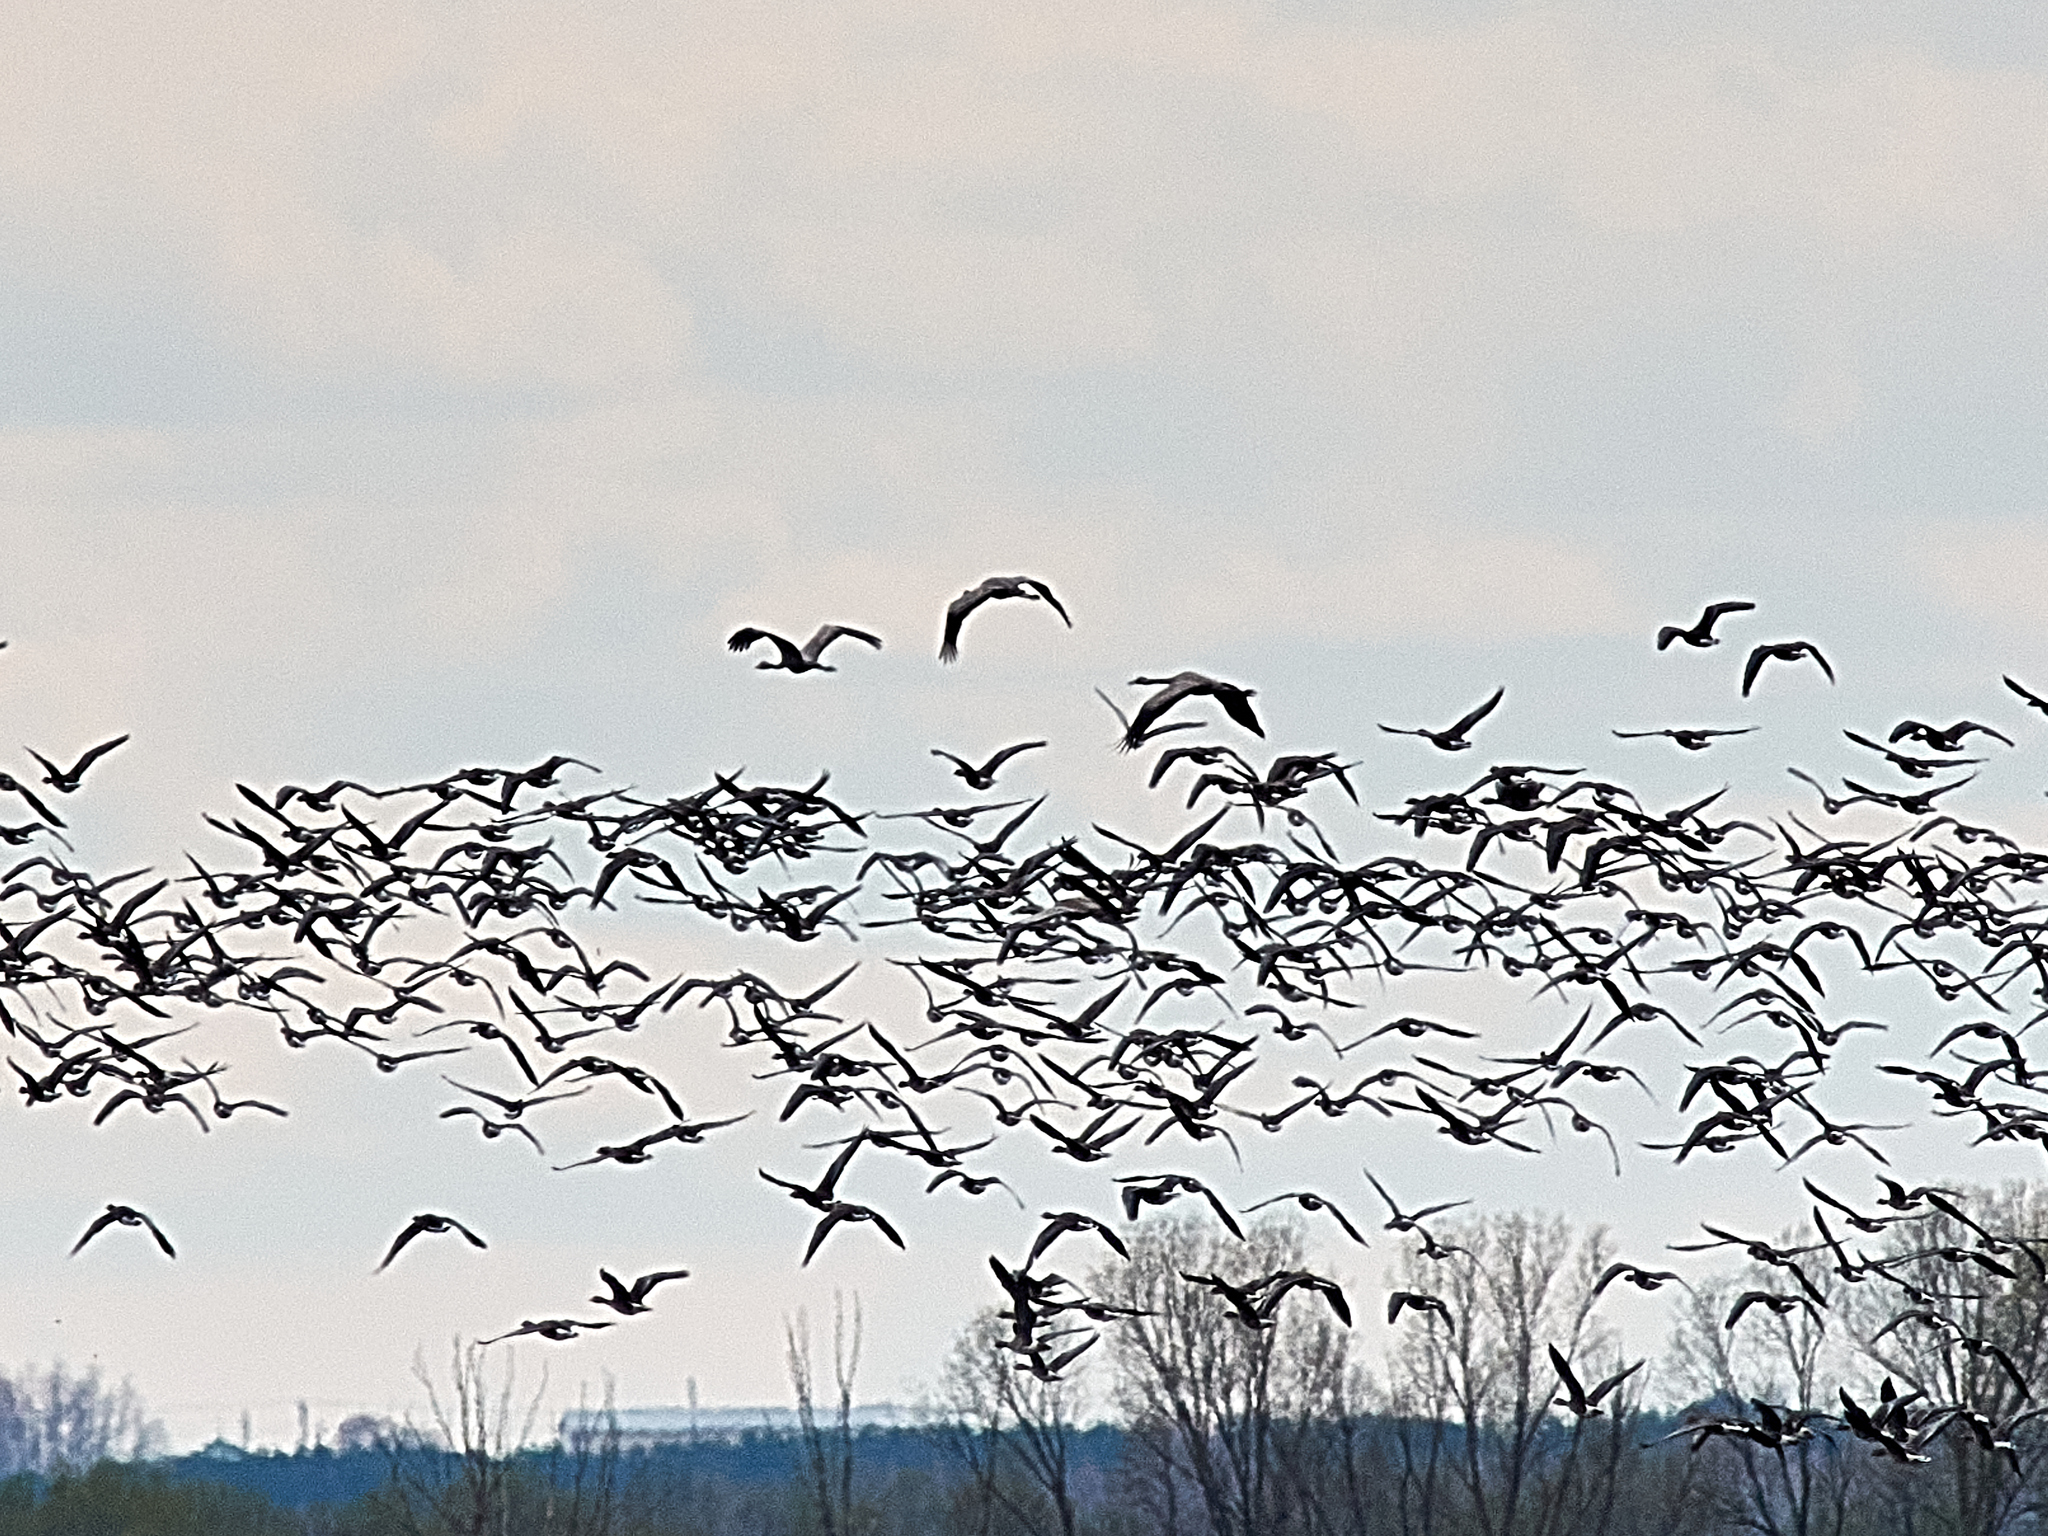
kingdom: Animalia
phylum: Chordata
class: Aves
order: Gruiformes
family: Gruidae
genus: Grus
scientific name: Grus grus
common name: Common crane
